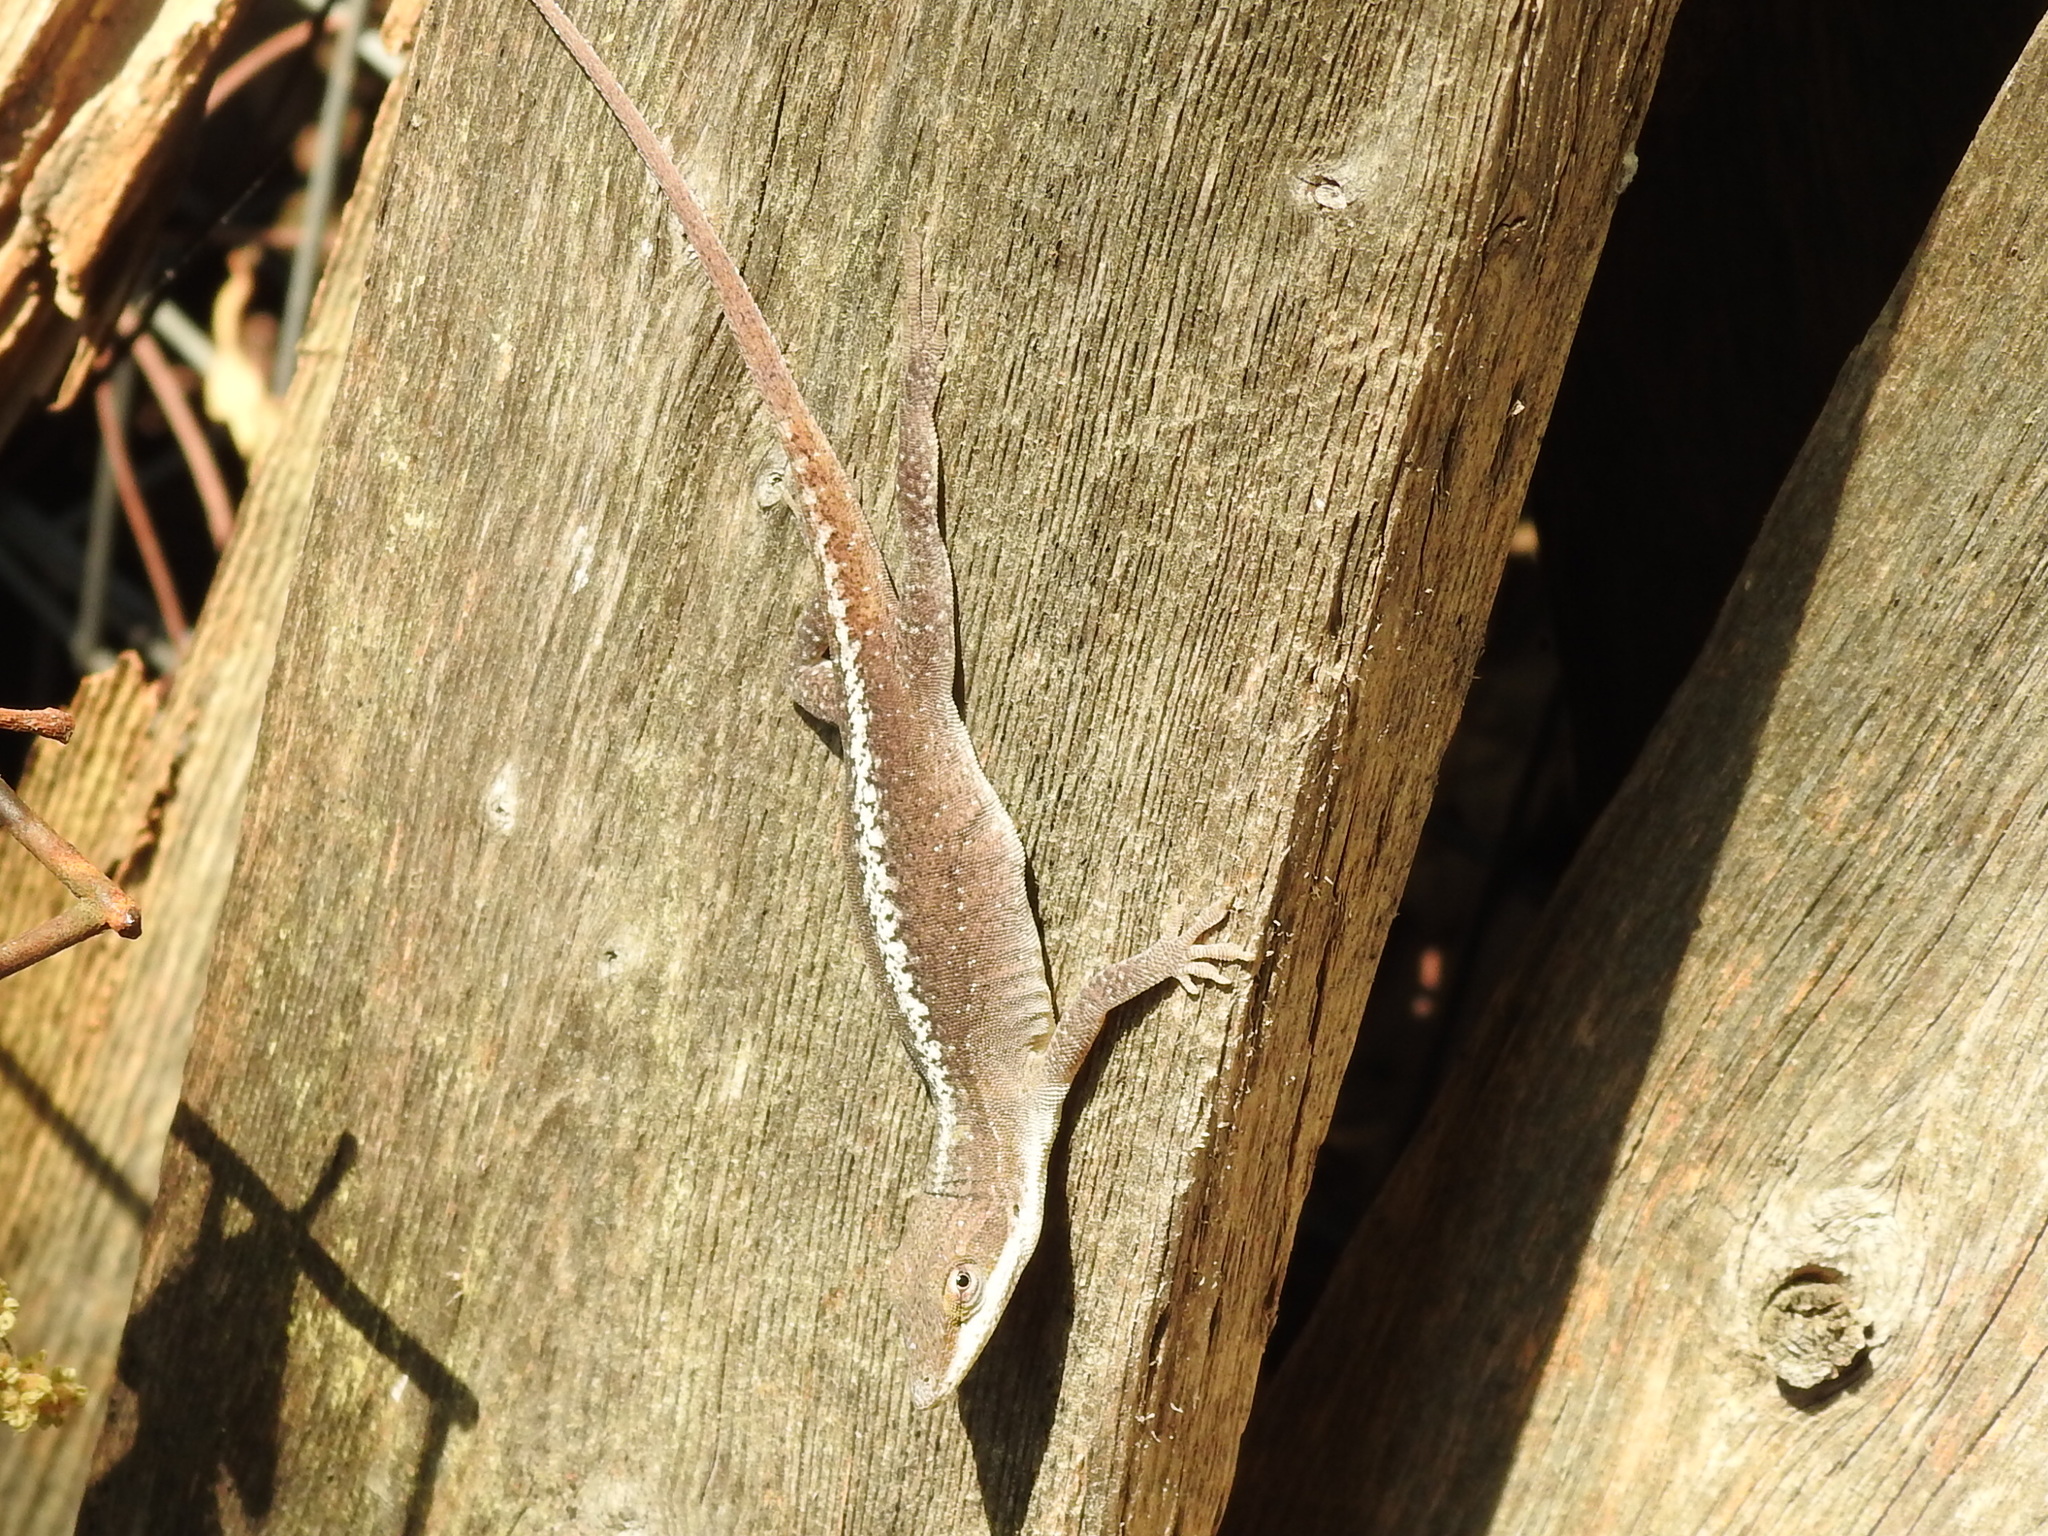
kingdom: Animalia
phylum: Chordata
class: Squamata
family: Dactyloidae
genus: Anolis
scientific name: Anolis carolinensis
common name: Green anole
